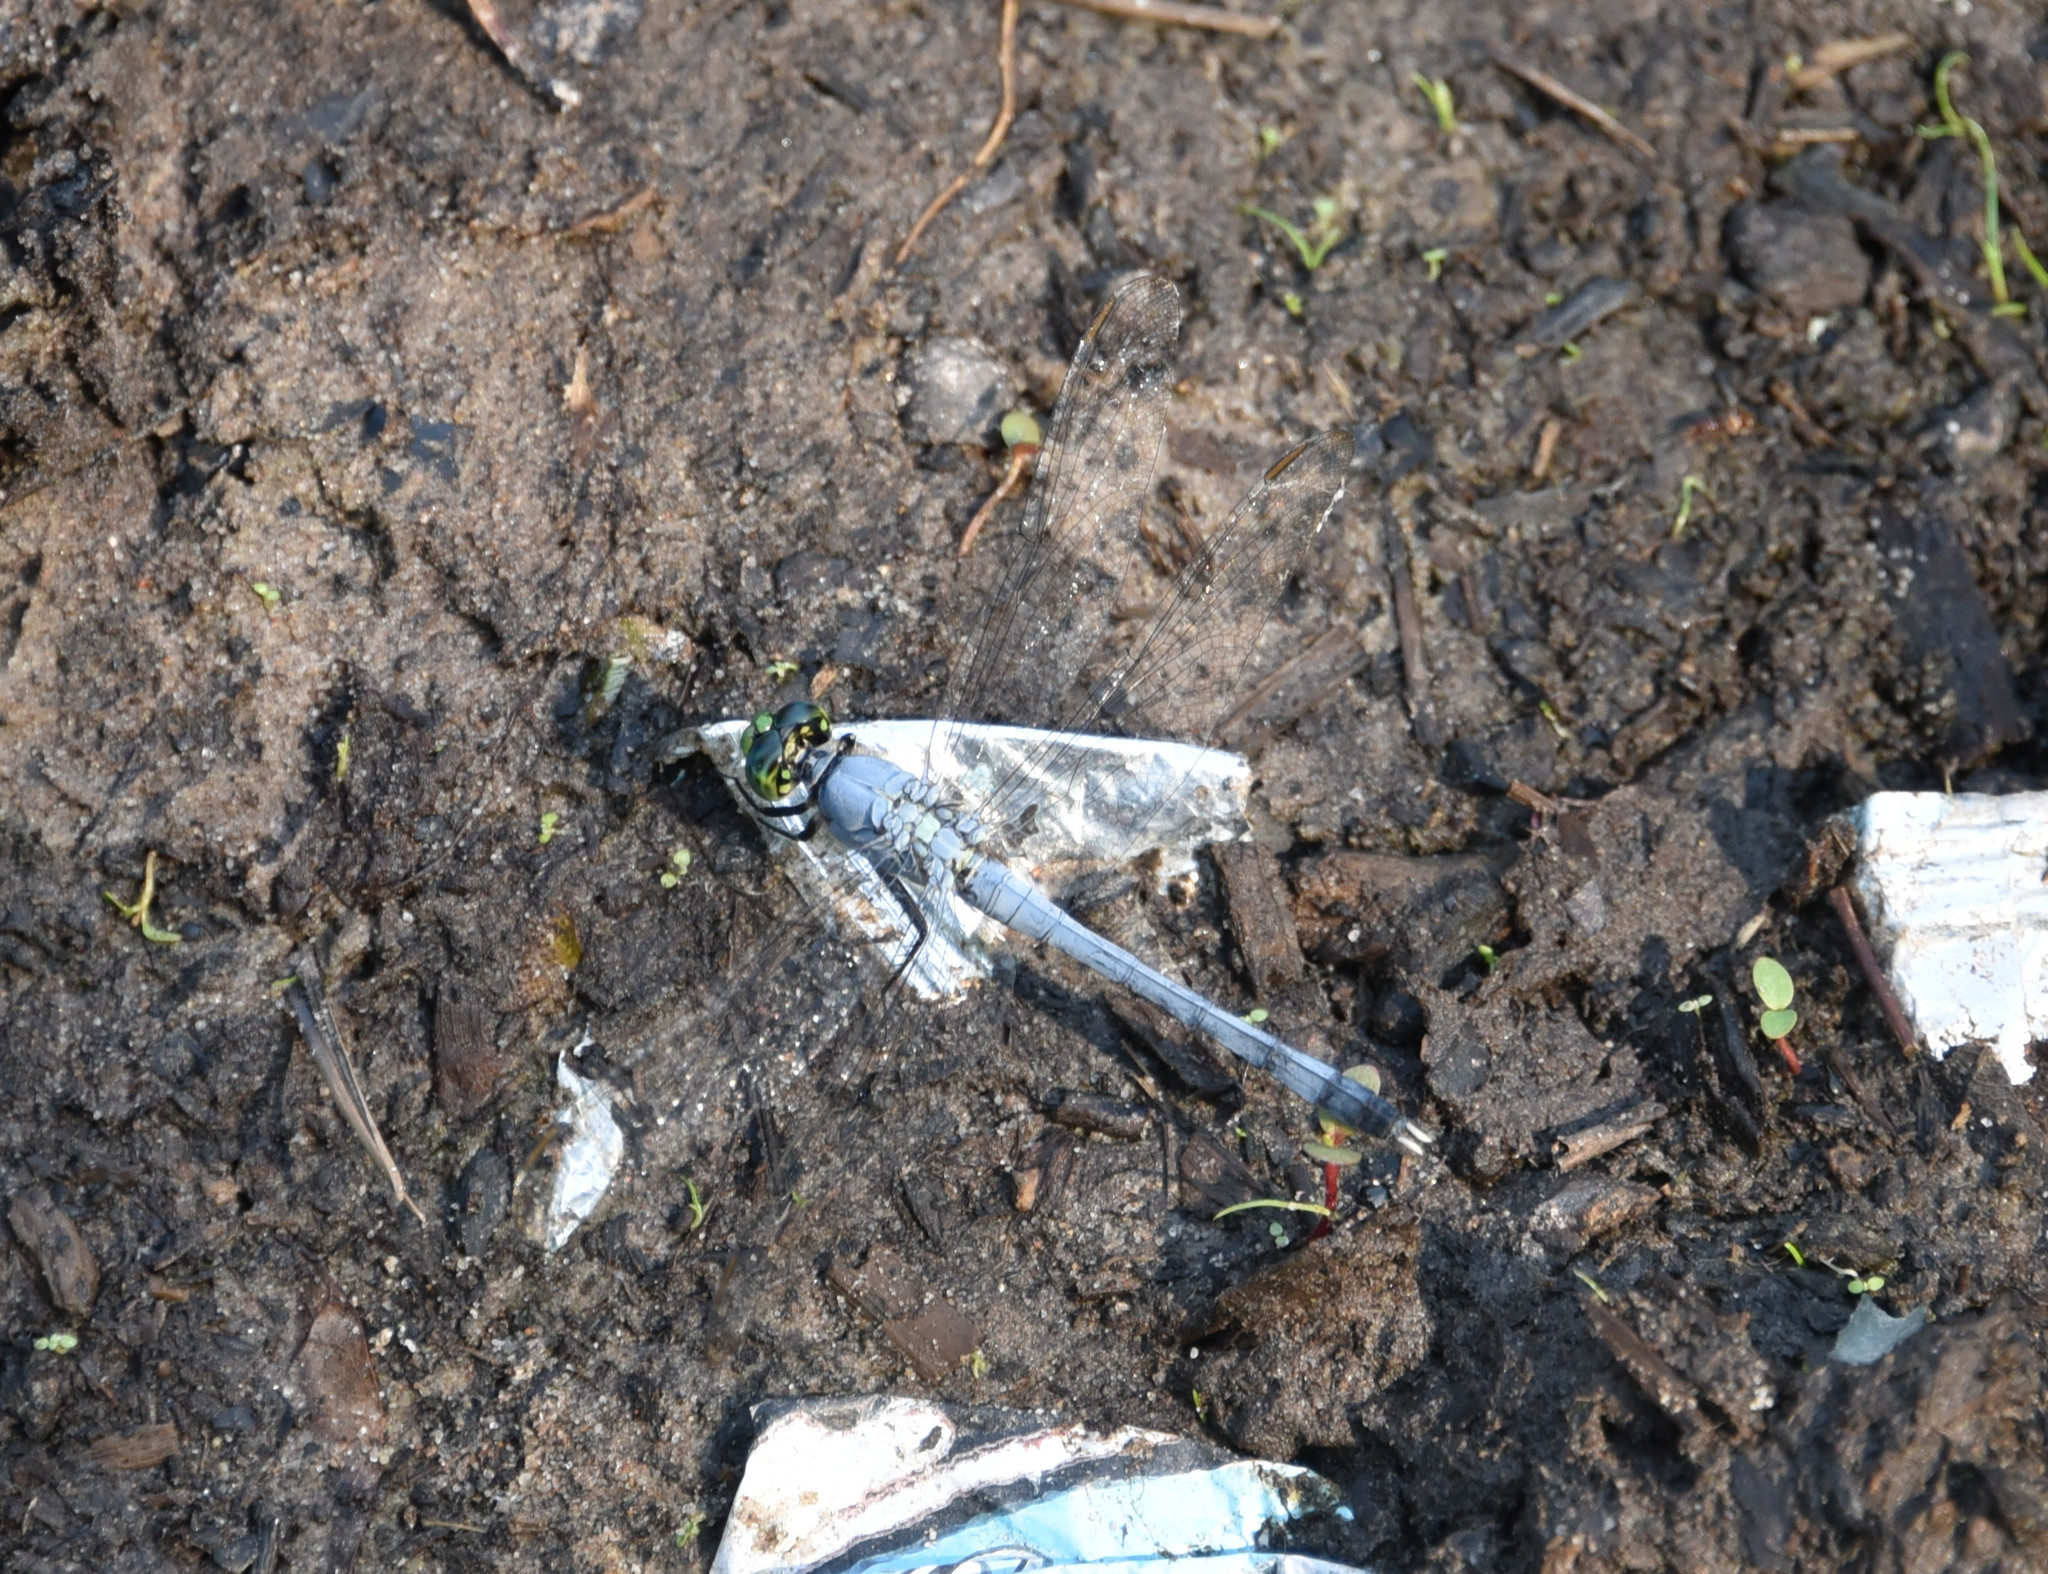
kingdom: Animalia
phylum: Arthropoda
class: Insecta
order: Odonata
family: Libellulidae
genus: Erythemis
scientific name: Erythemis simplicicollis
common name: Eastern pondhawk
